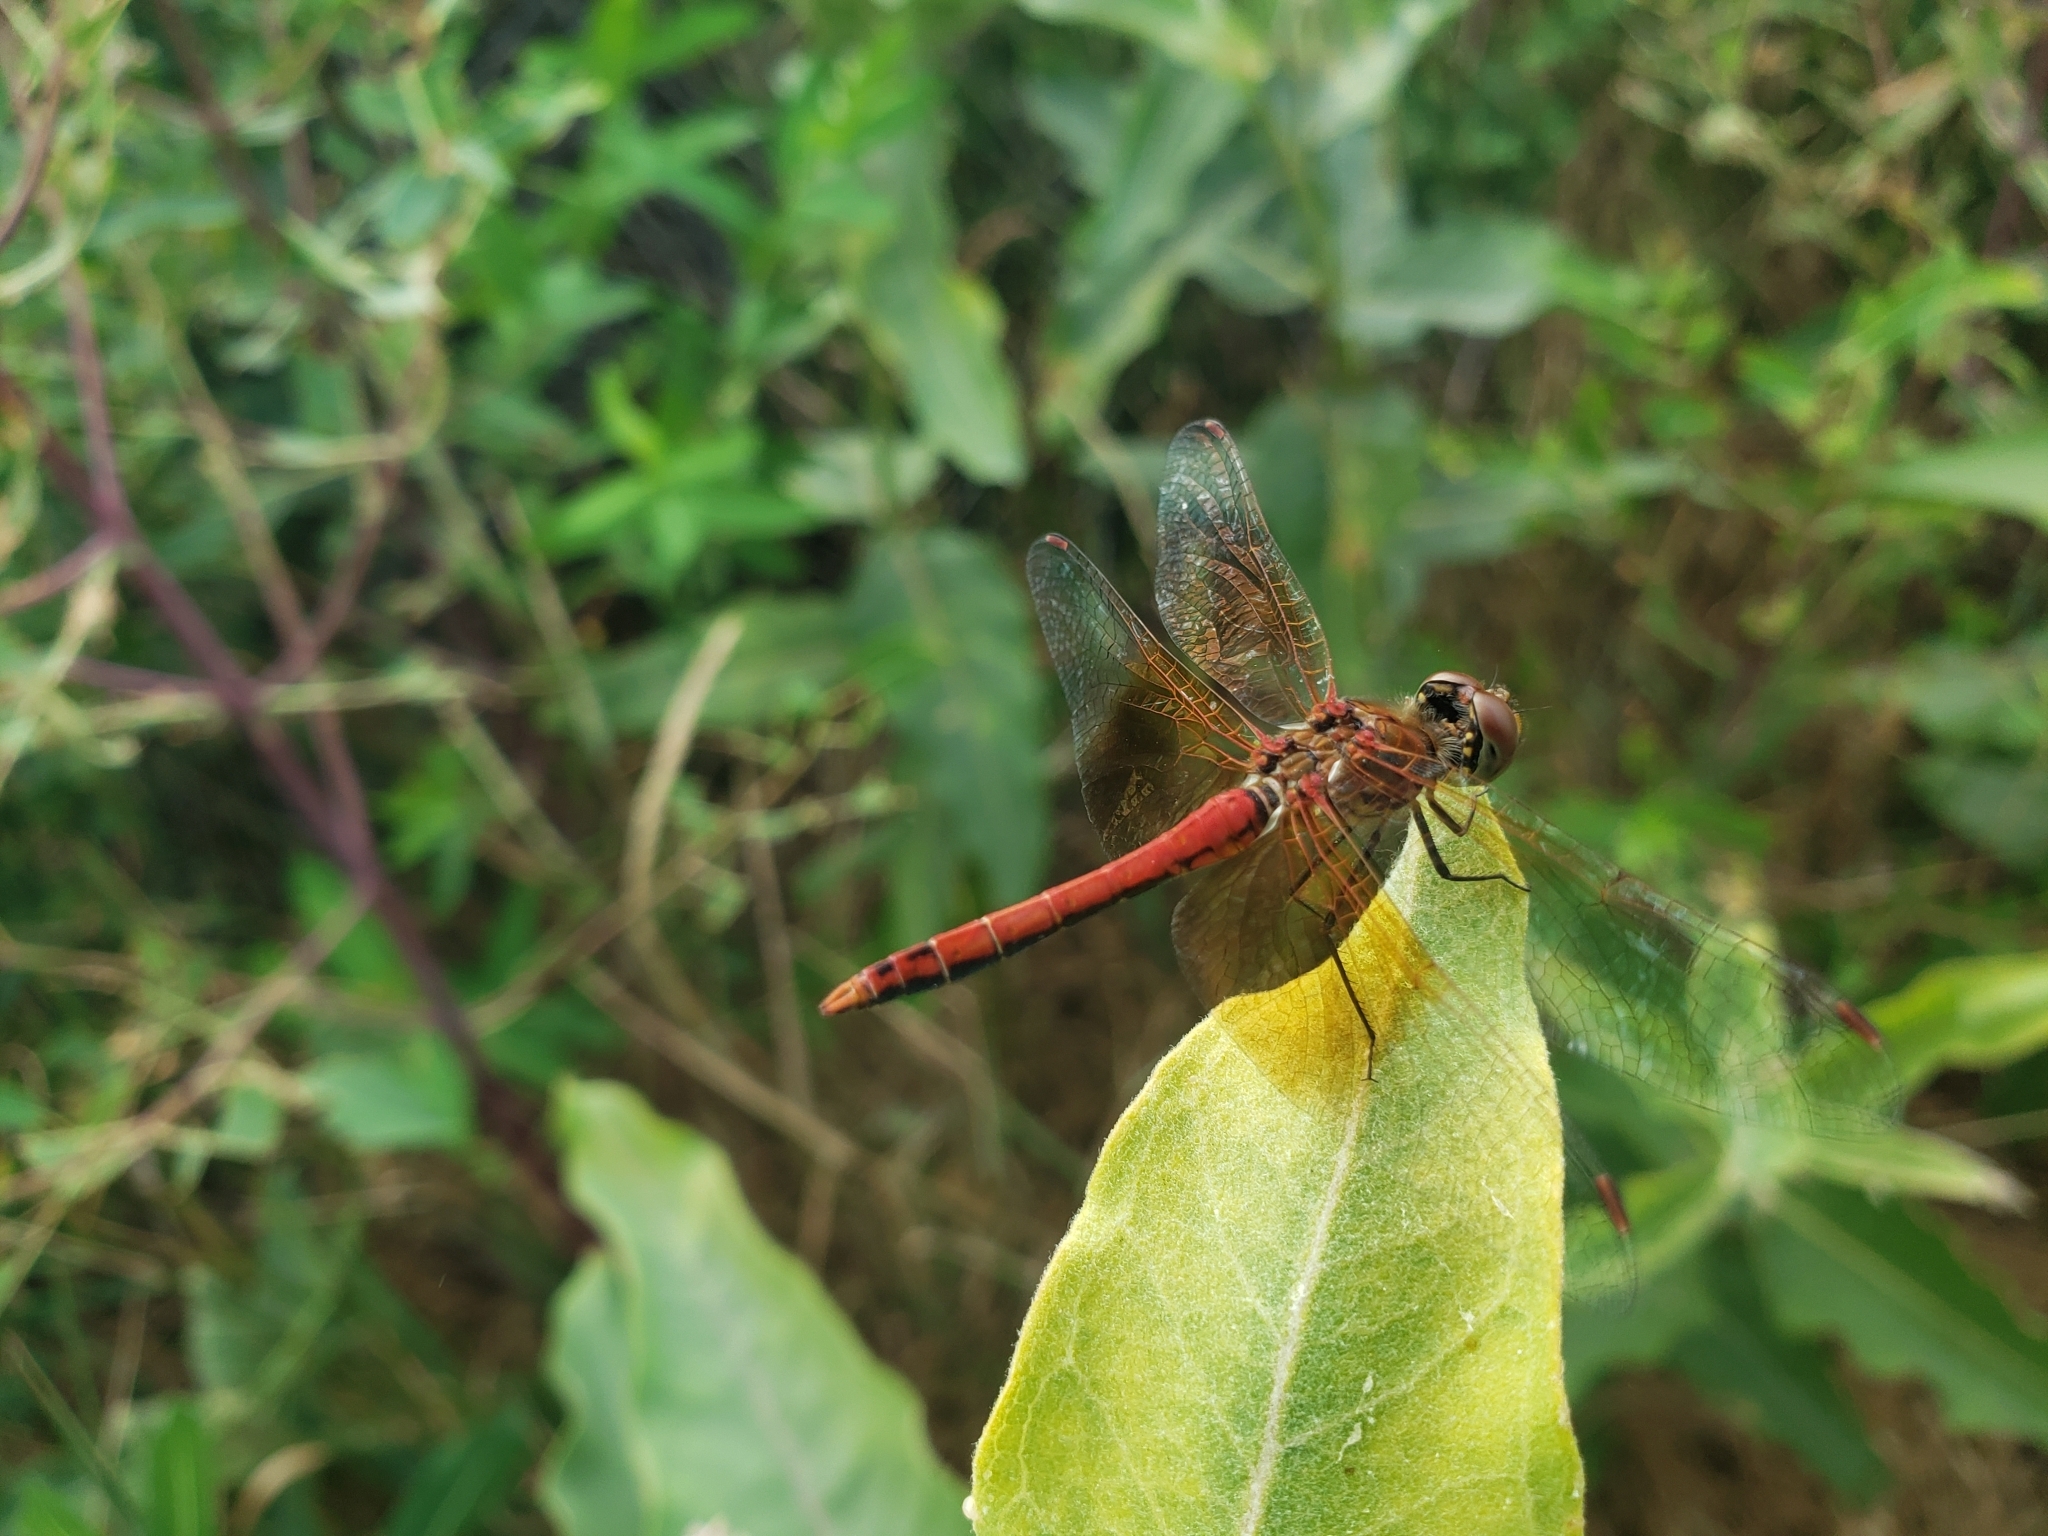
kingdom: Animalia
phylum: Arthropoda
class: Insecta
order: Odonata
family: Libellulidae
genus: Sympetrum
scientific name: Sympetrum semicinctum
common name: Band-winged meadowhawk
